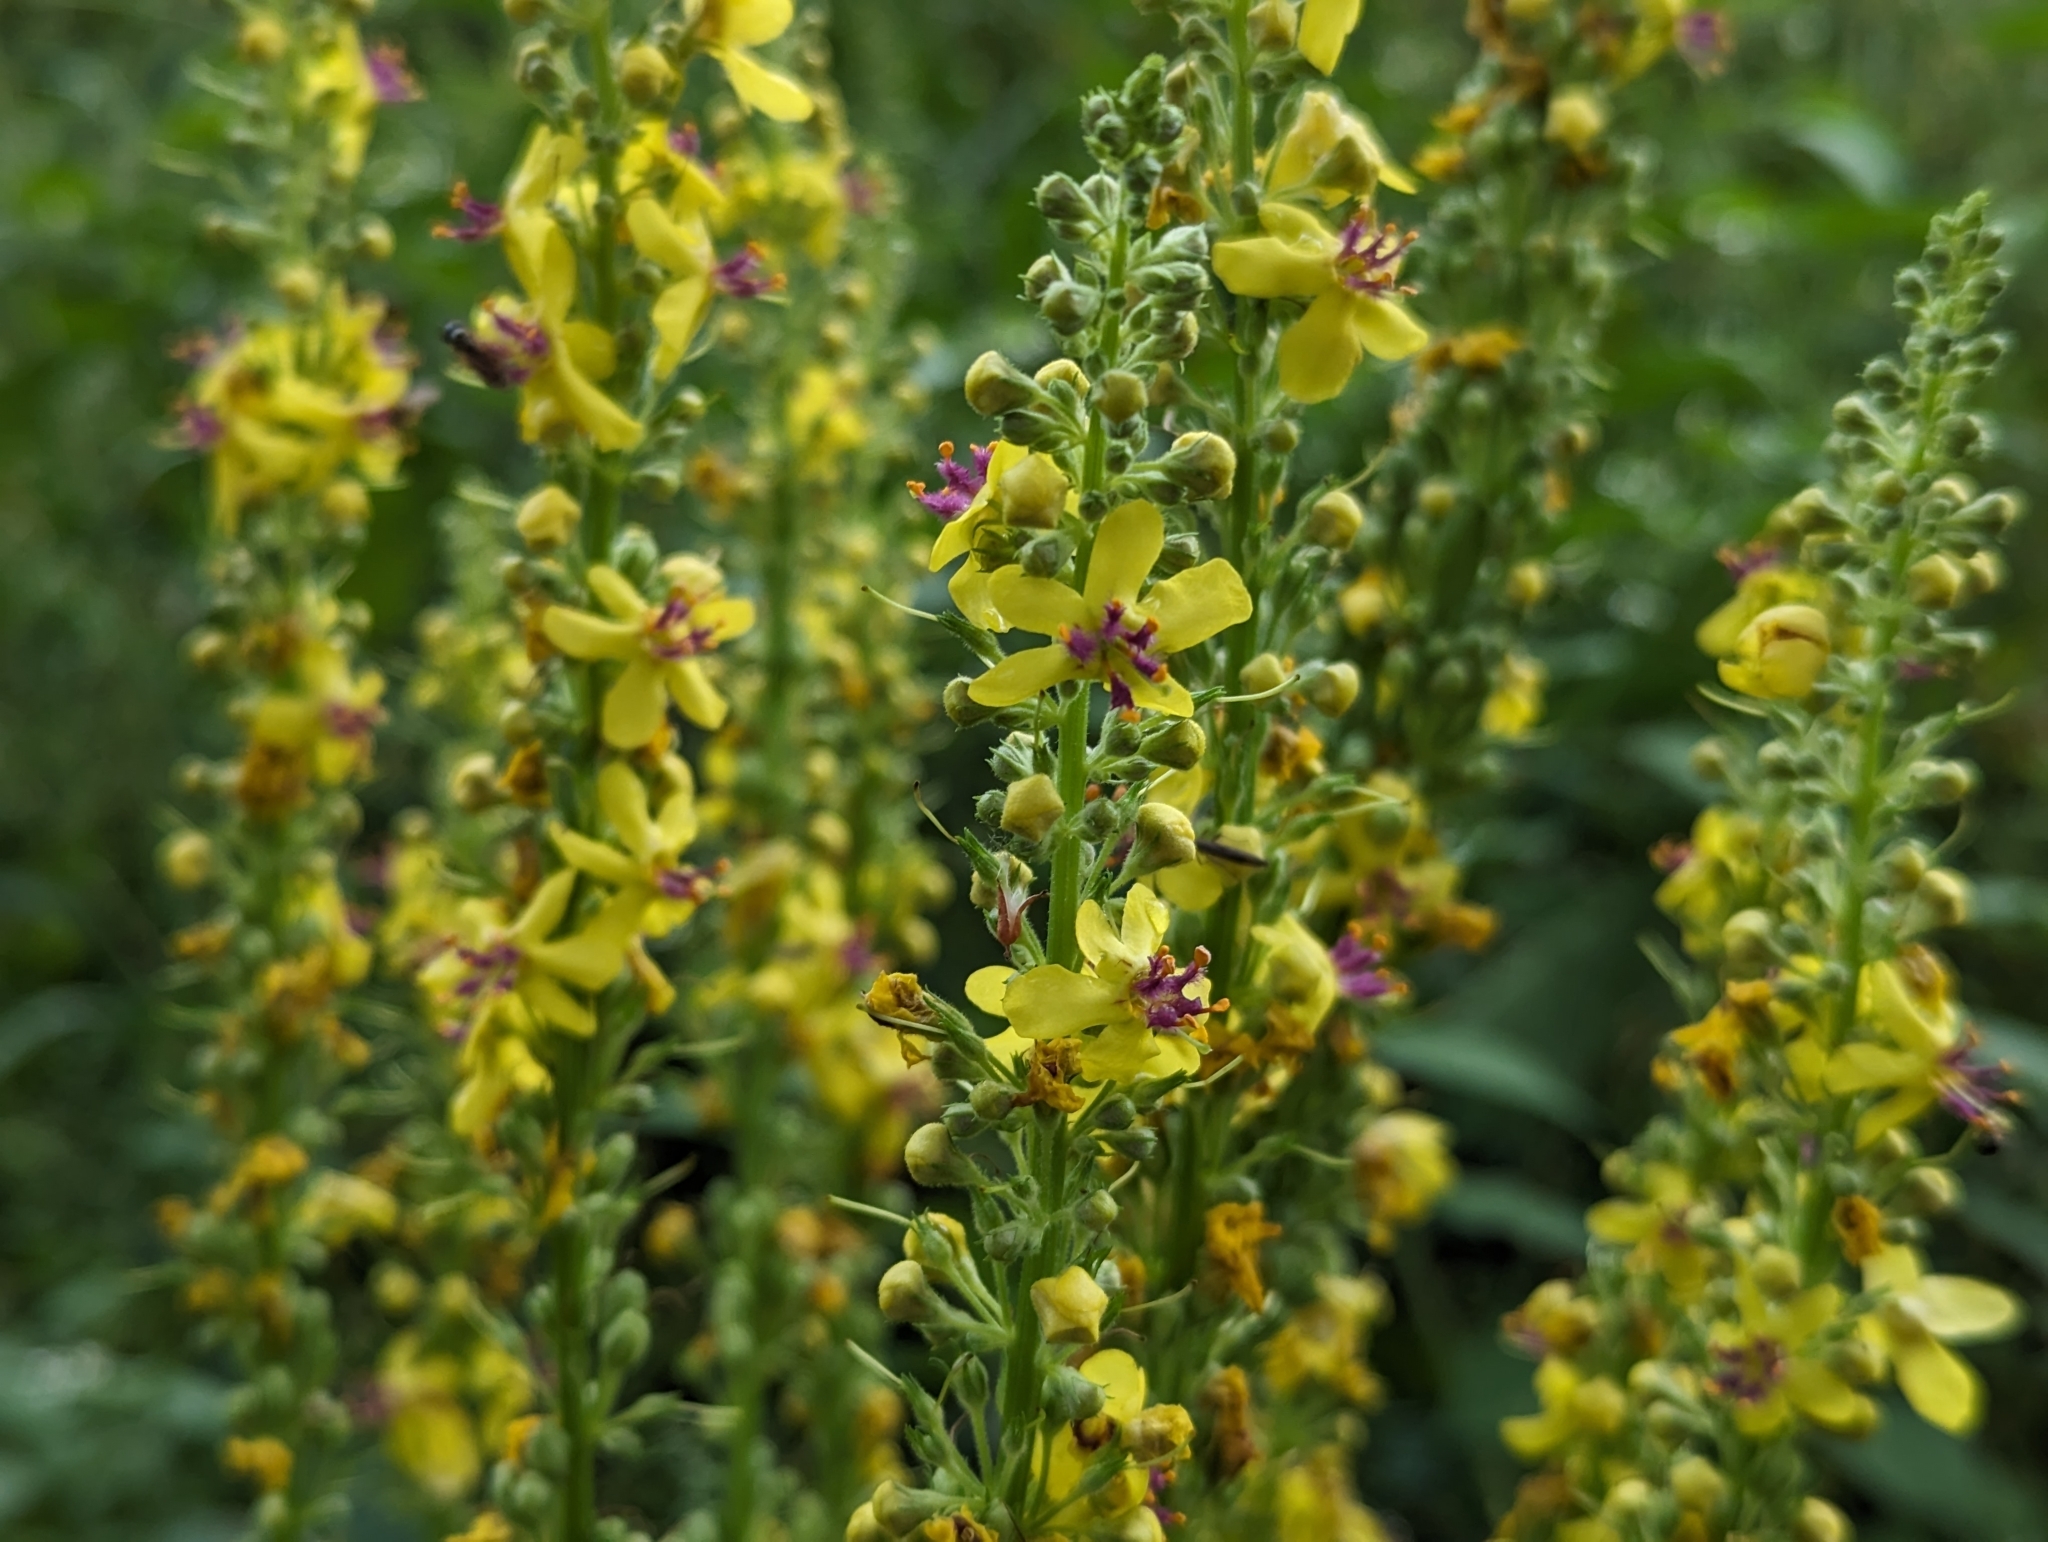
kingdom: Plantae
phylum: Tracheophyta
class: Magnoliopsida
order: Lamiales
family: Scrophulariaceae
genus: Verbascum
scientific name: Verbascum nigrum
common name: Dark mullein
